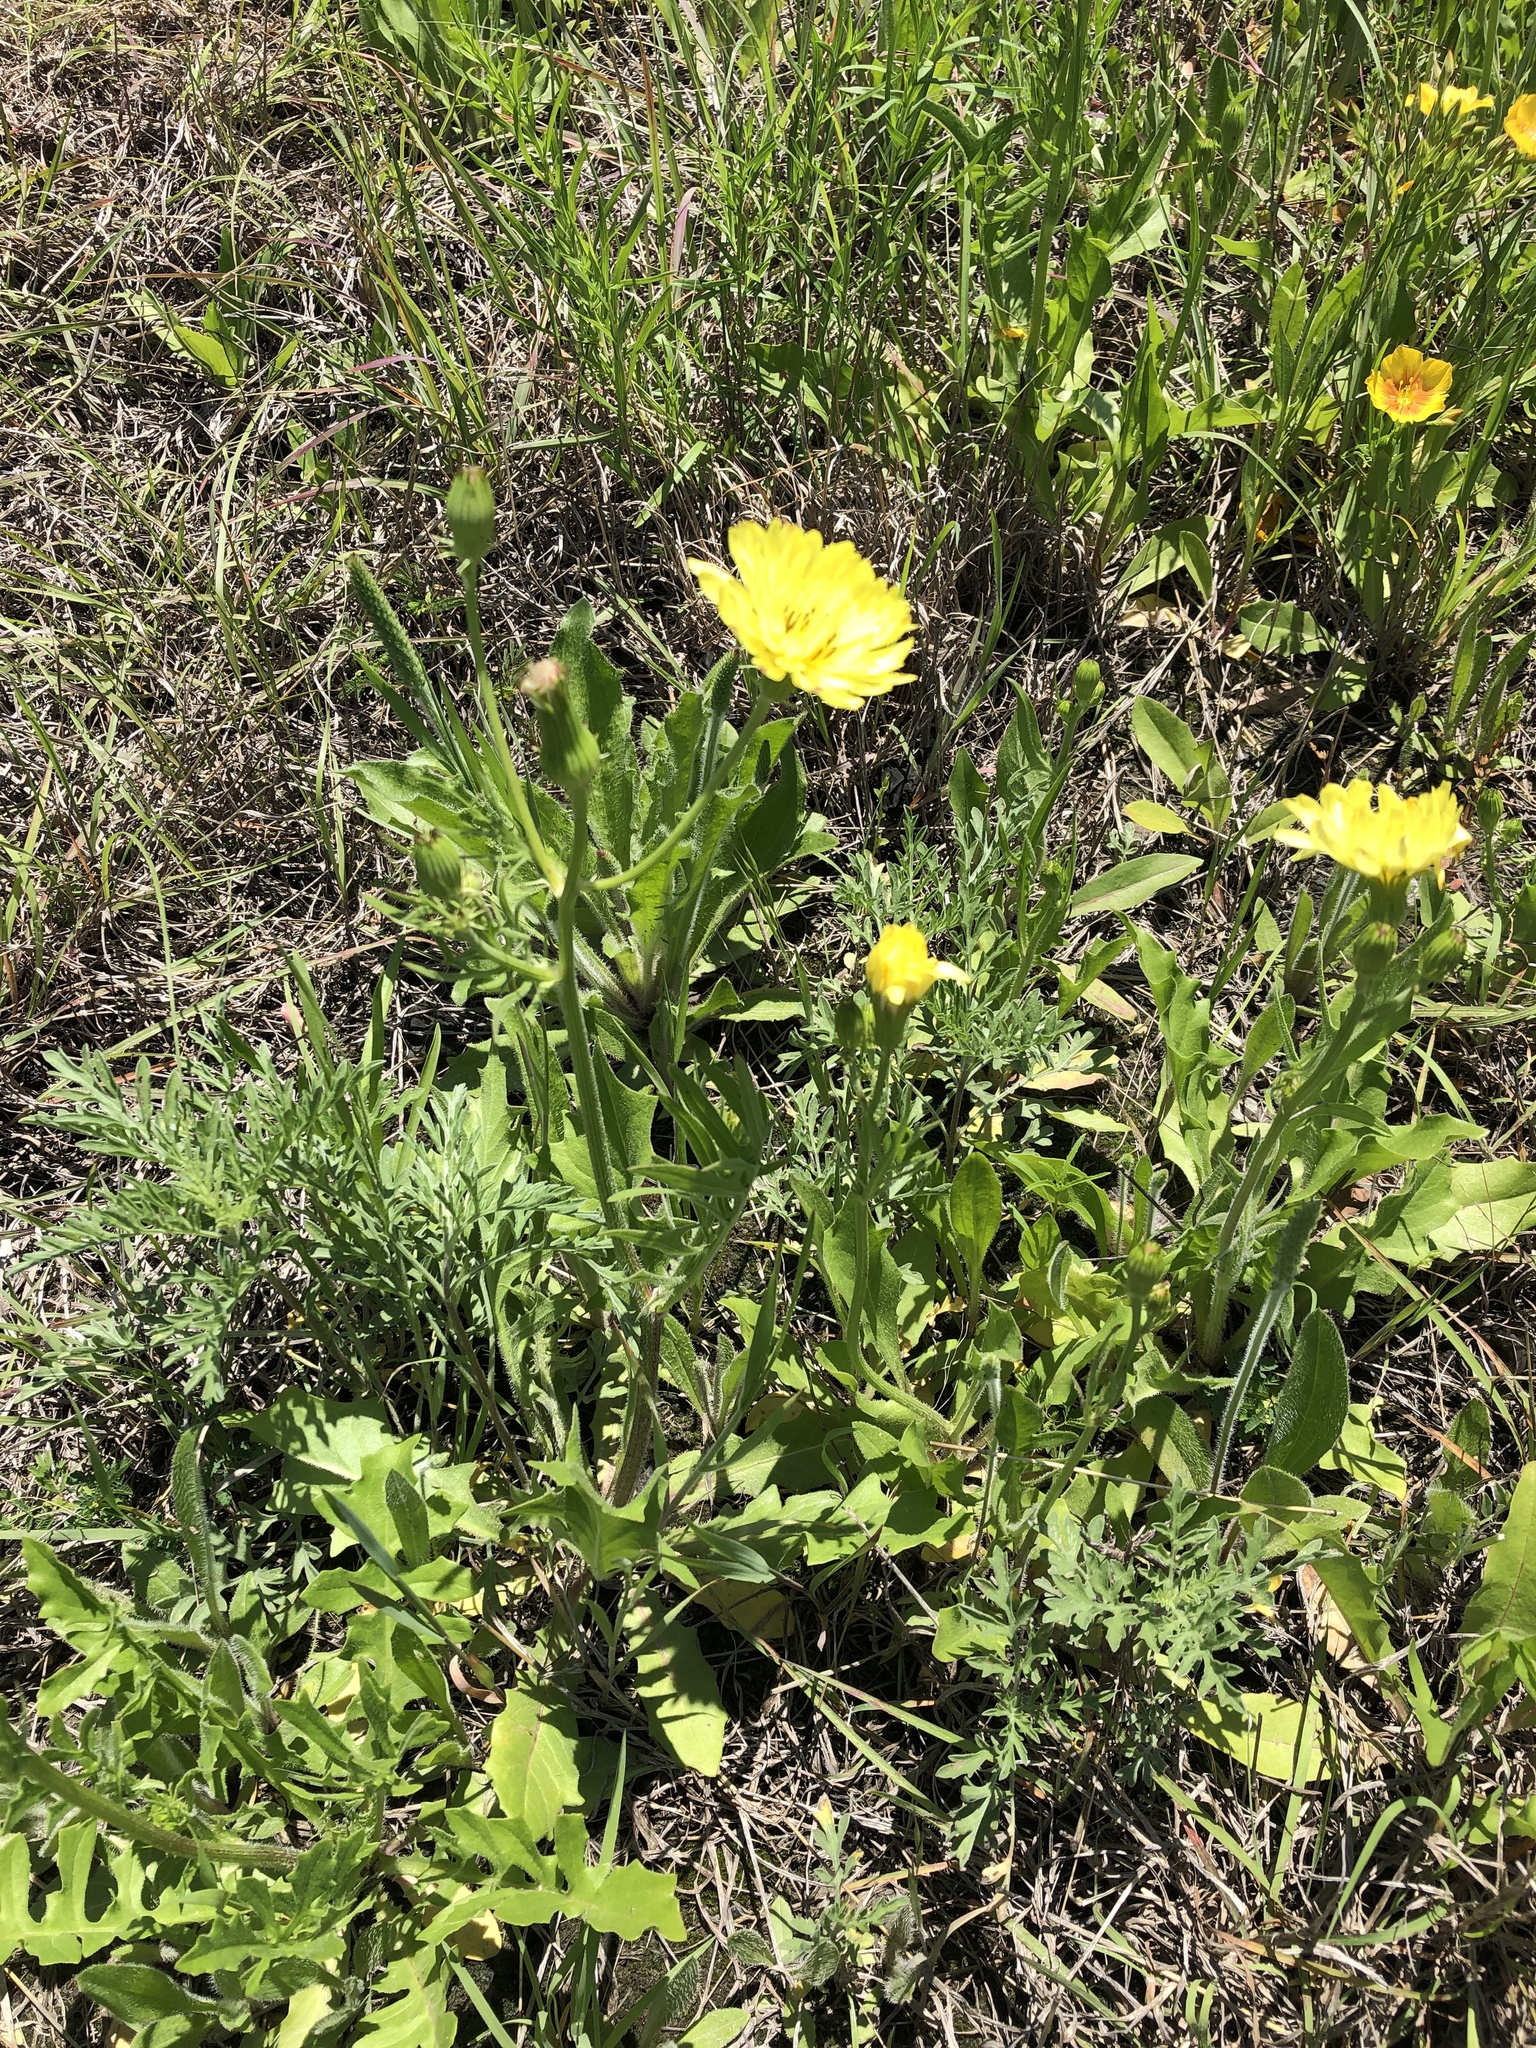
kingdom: Plantae
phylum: Tracheophyta
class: Magnoliopsida
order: Asterales
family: Asteraceae
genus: Pyrrhopappus
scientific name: Pyrrhopappus pauciflorus
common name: Texas false dandelion
